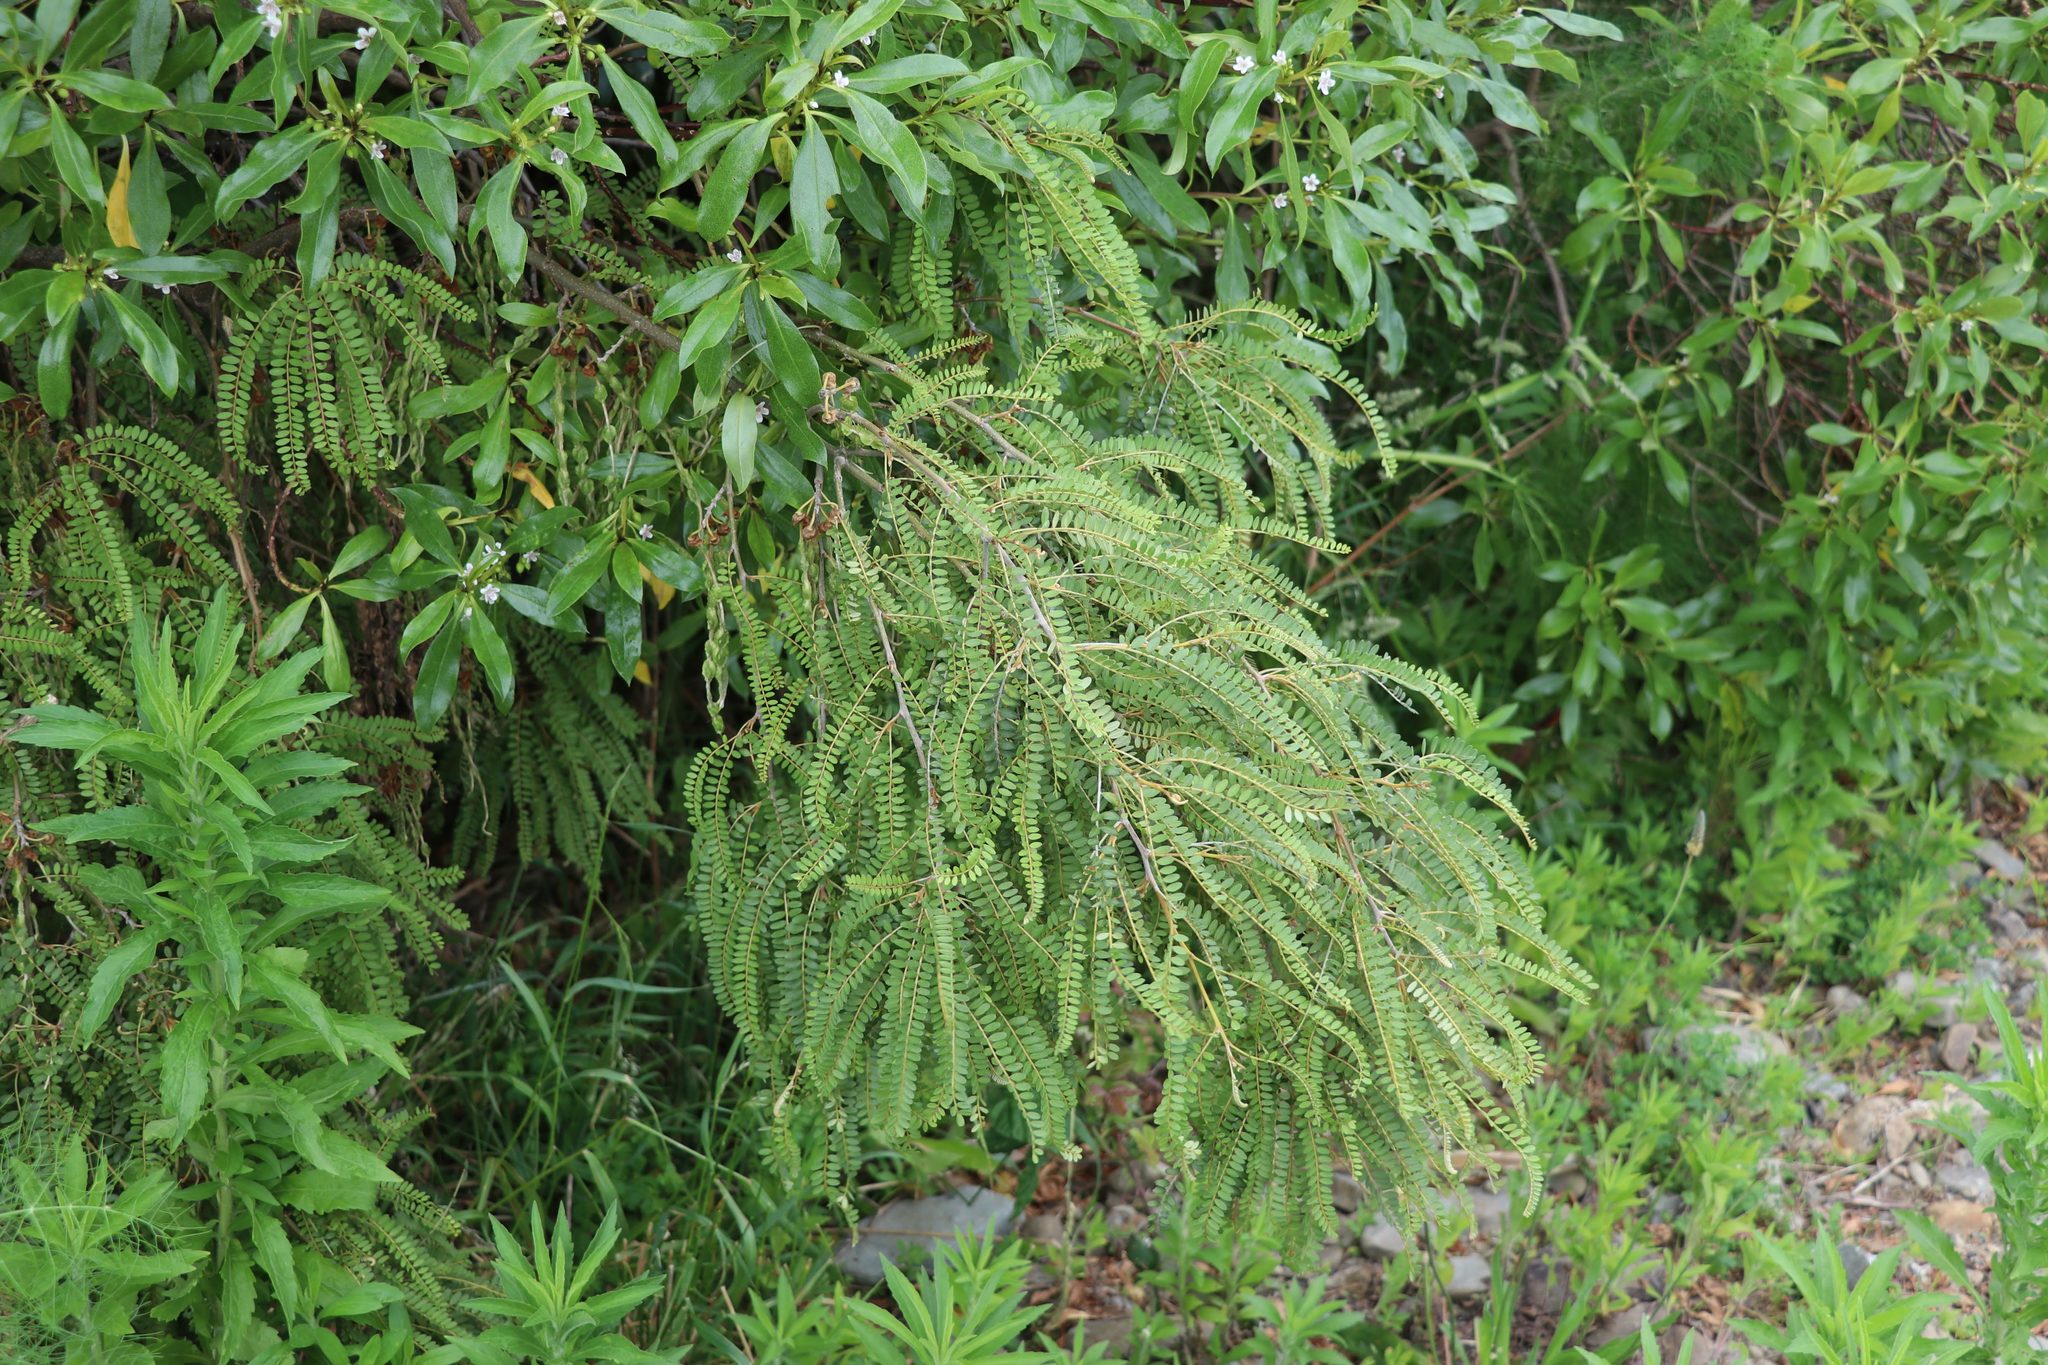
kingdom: Plantae
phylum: Tracheophyta
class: Magnoliopsida
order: Fabales
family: Fabaceae
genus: Sophora
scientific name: Sophora microphylla
